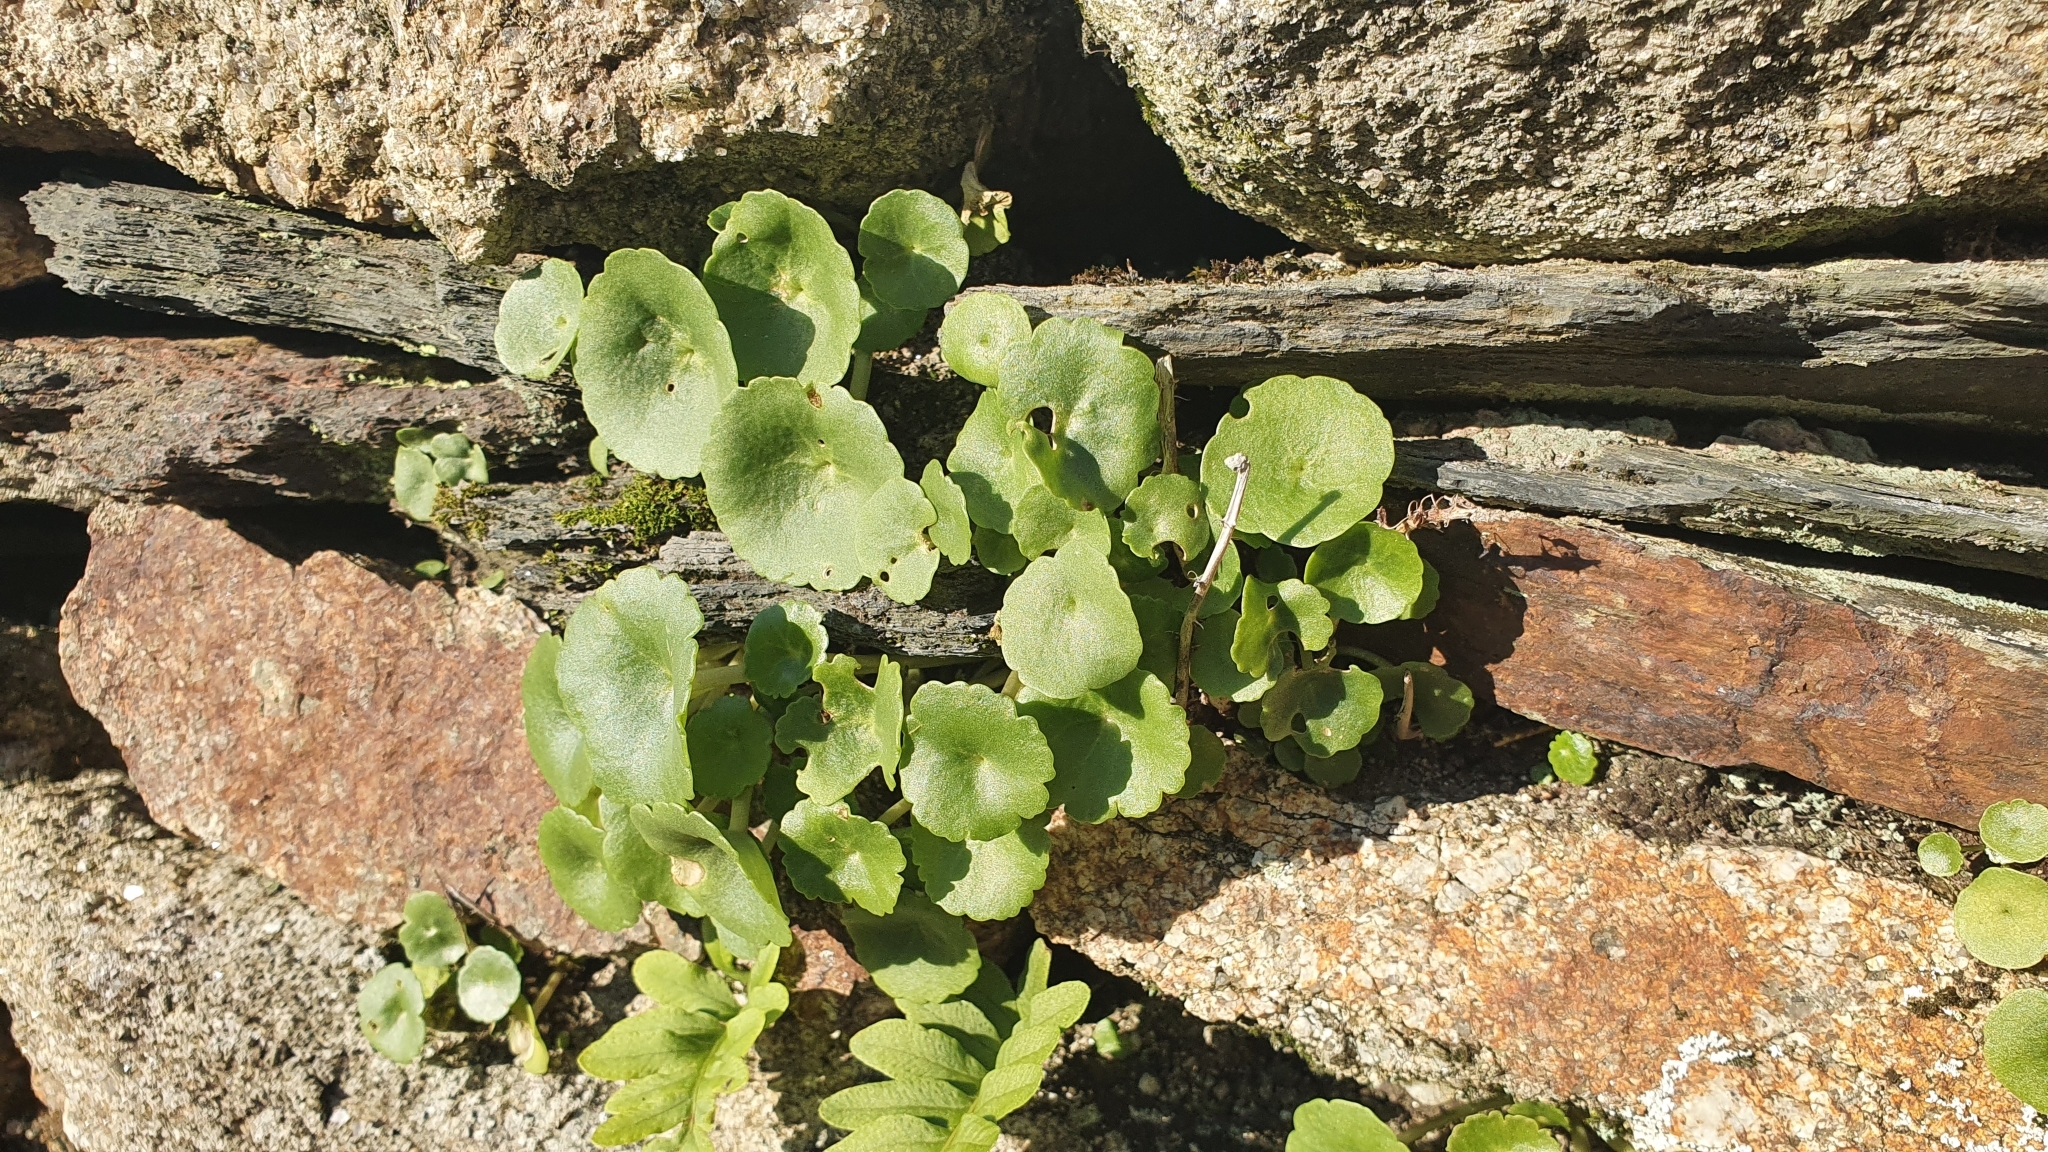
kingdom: Plantae
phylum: Tracheophyta
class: Magnoliopsida
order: Saxifragales
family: Crassulaceae
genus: Umbilicus
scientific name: Umbilicus rupestris
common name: Navelwort
